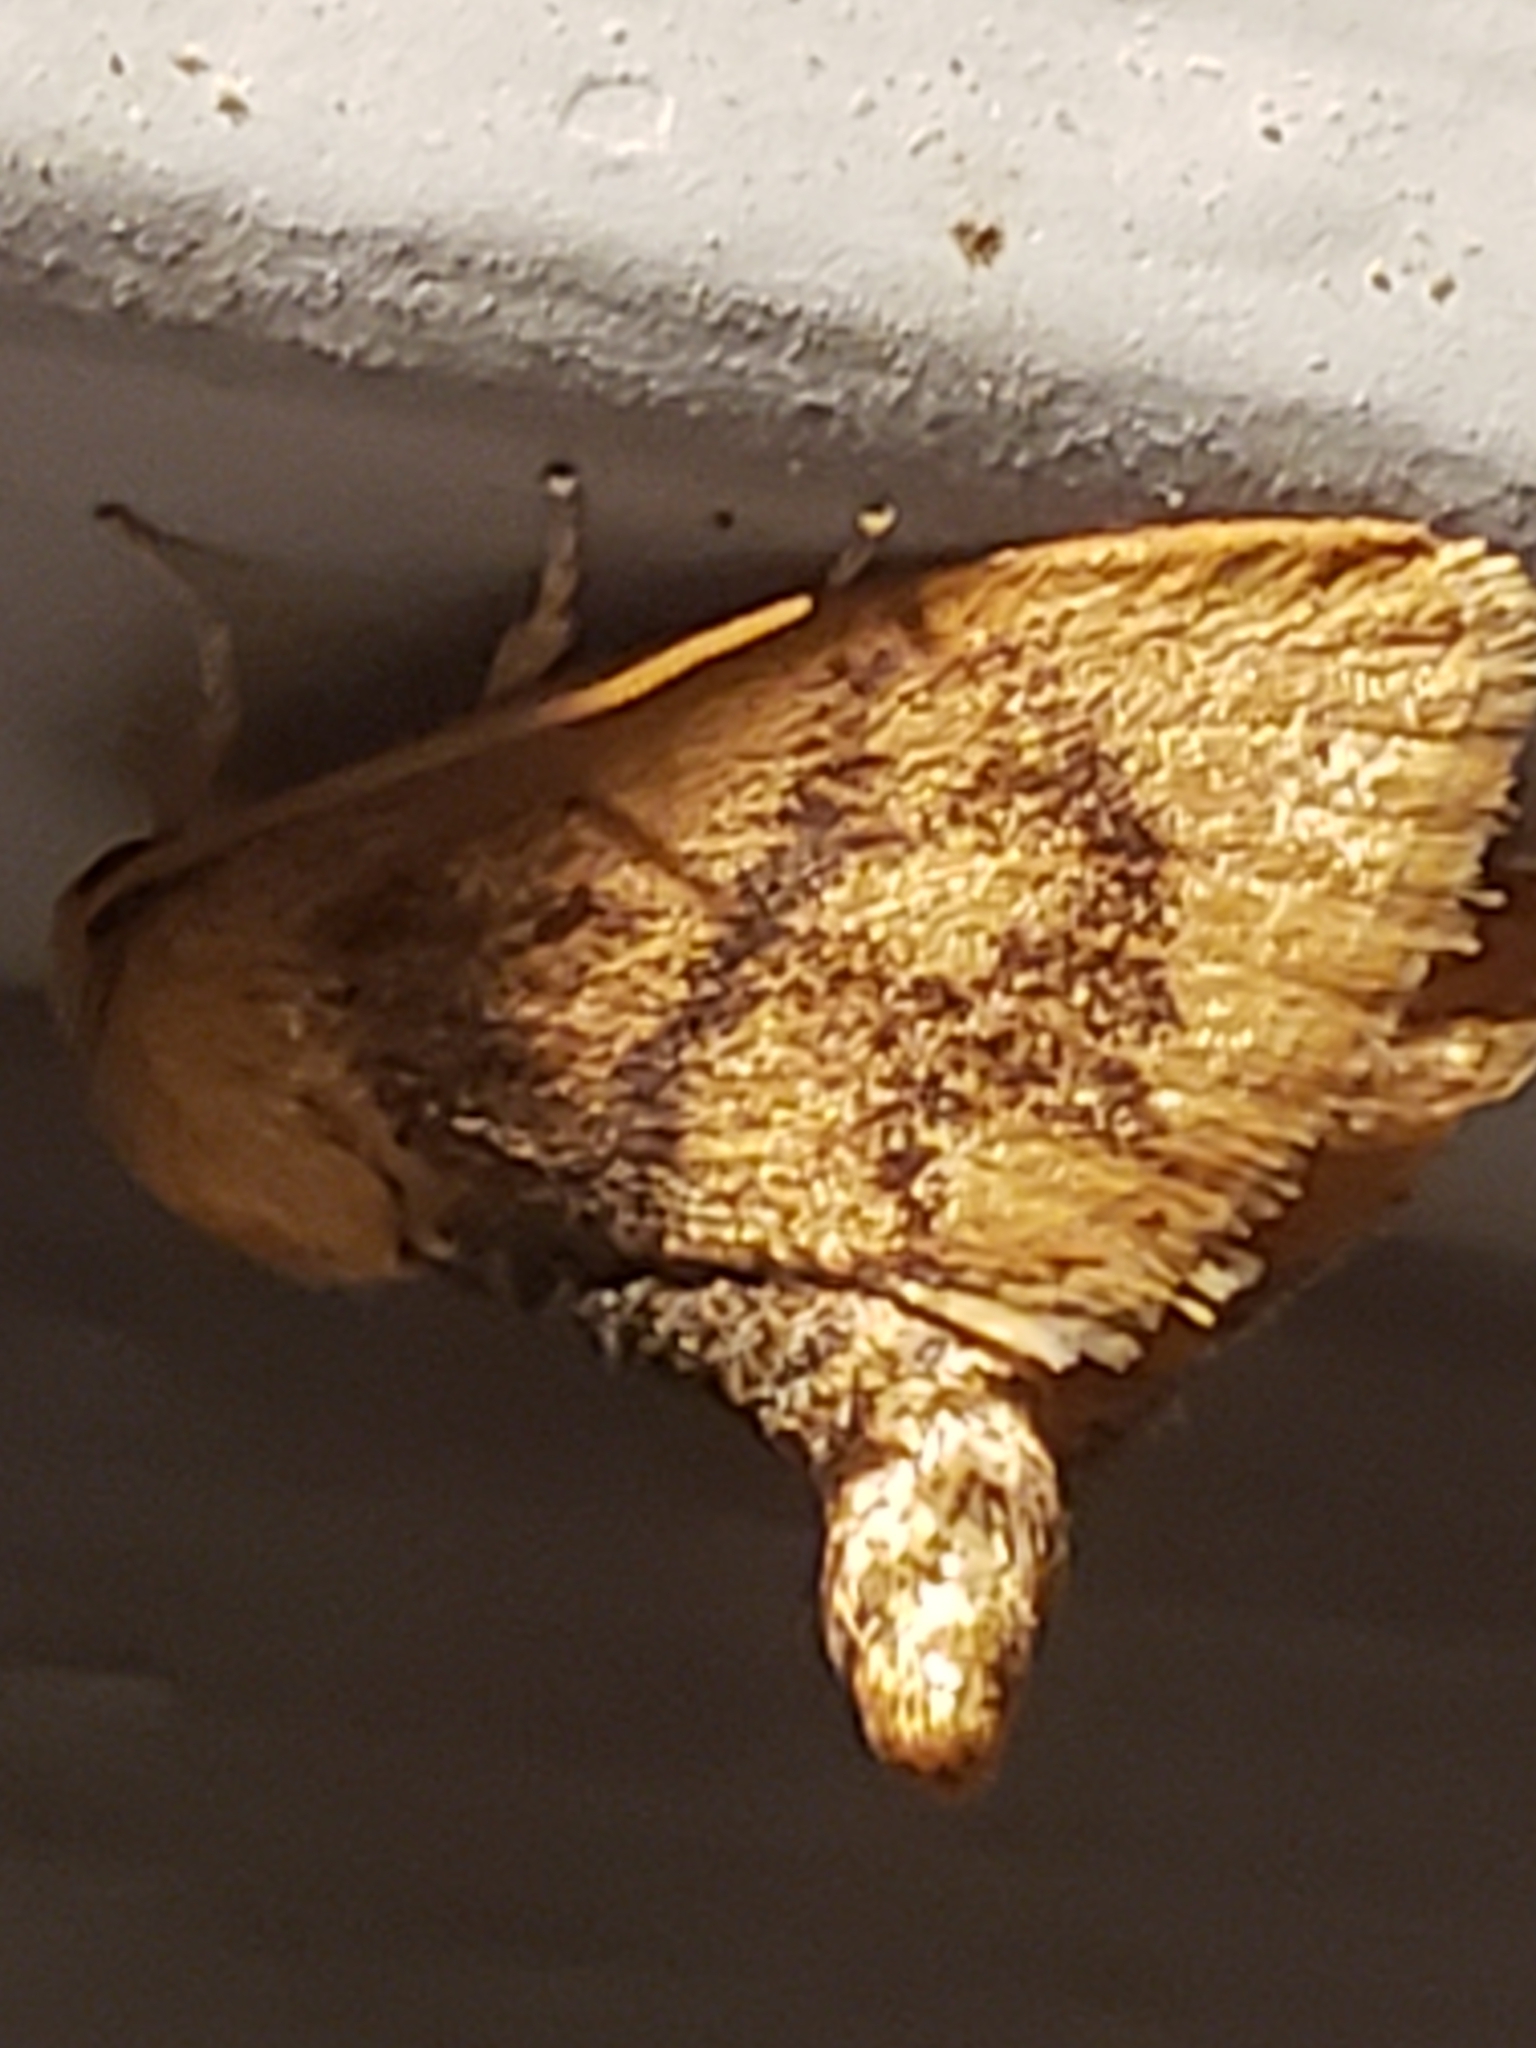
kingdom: Animalia
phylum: Arthropoda
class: Insecta
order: Lepidoptera
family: Limacodidae
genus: Tortricidia
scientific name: Tortricidia flexuosa
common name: Abbreviated button slug moth
